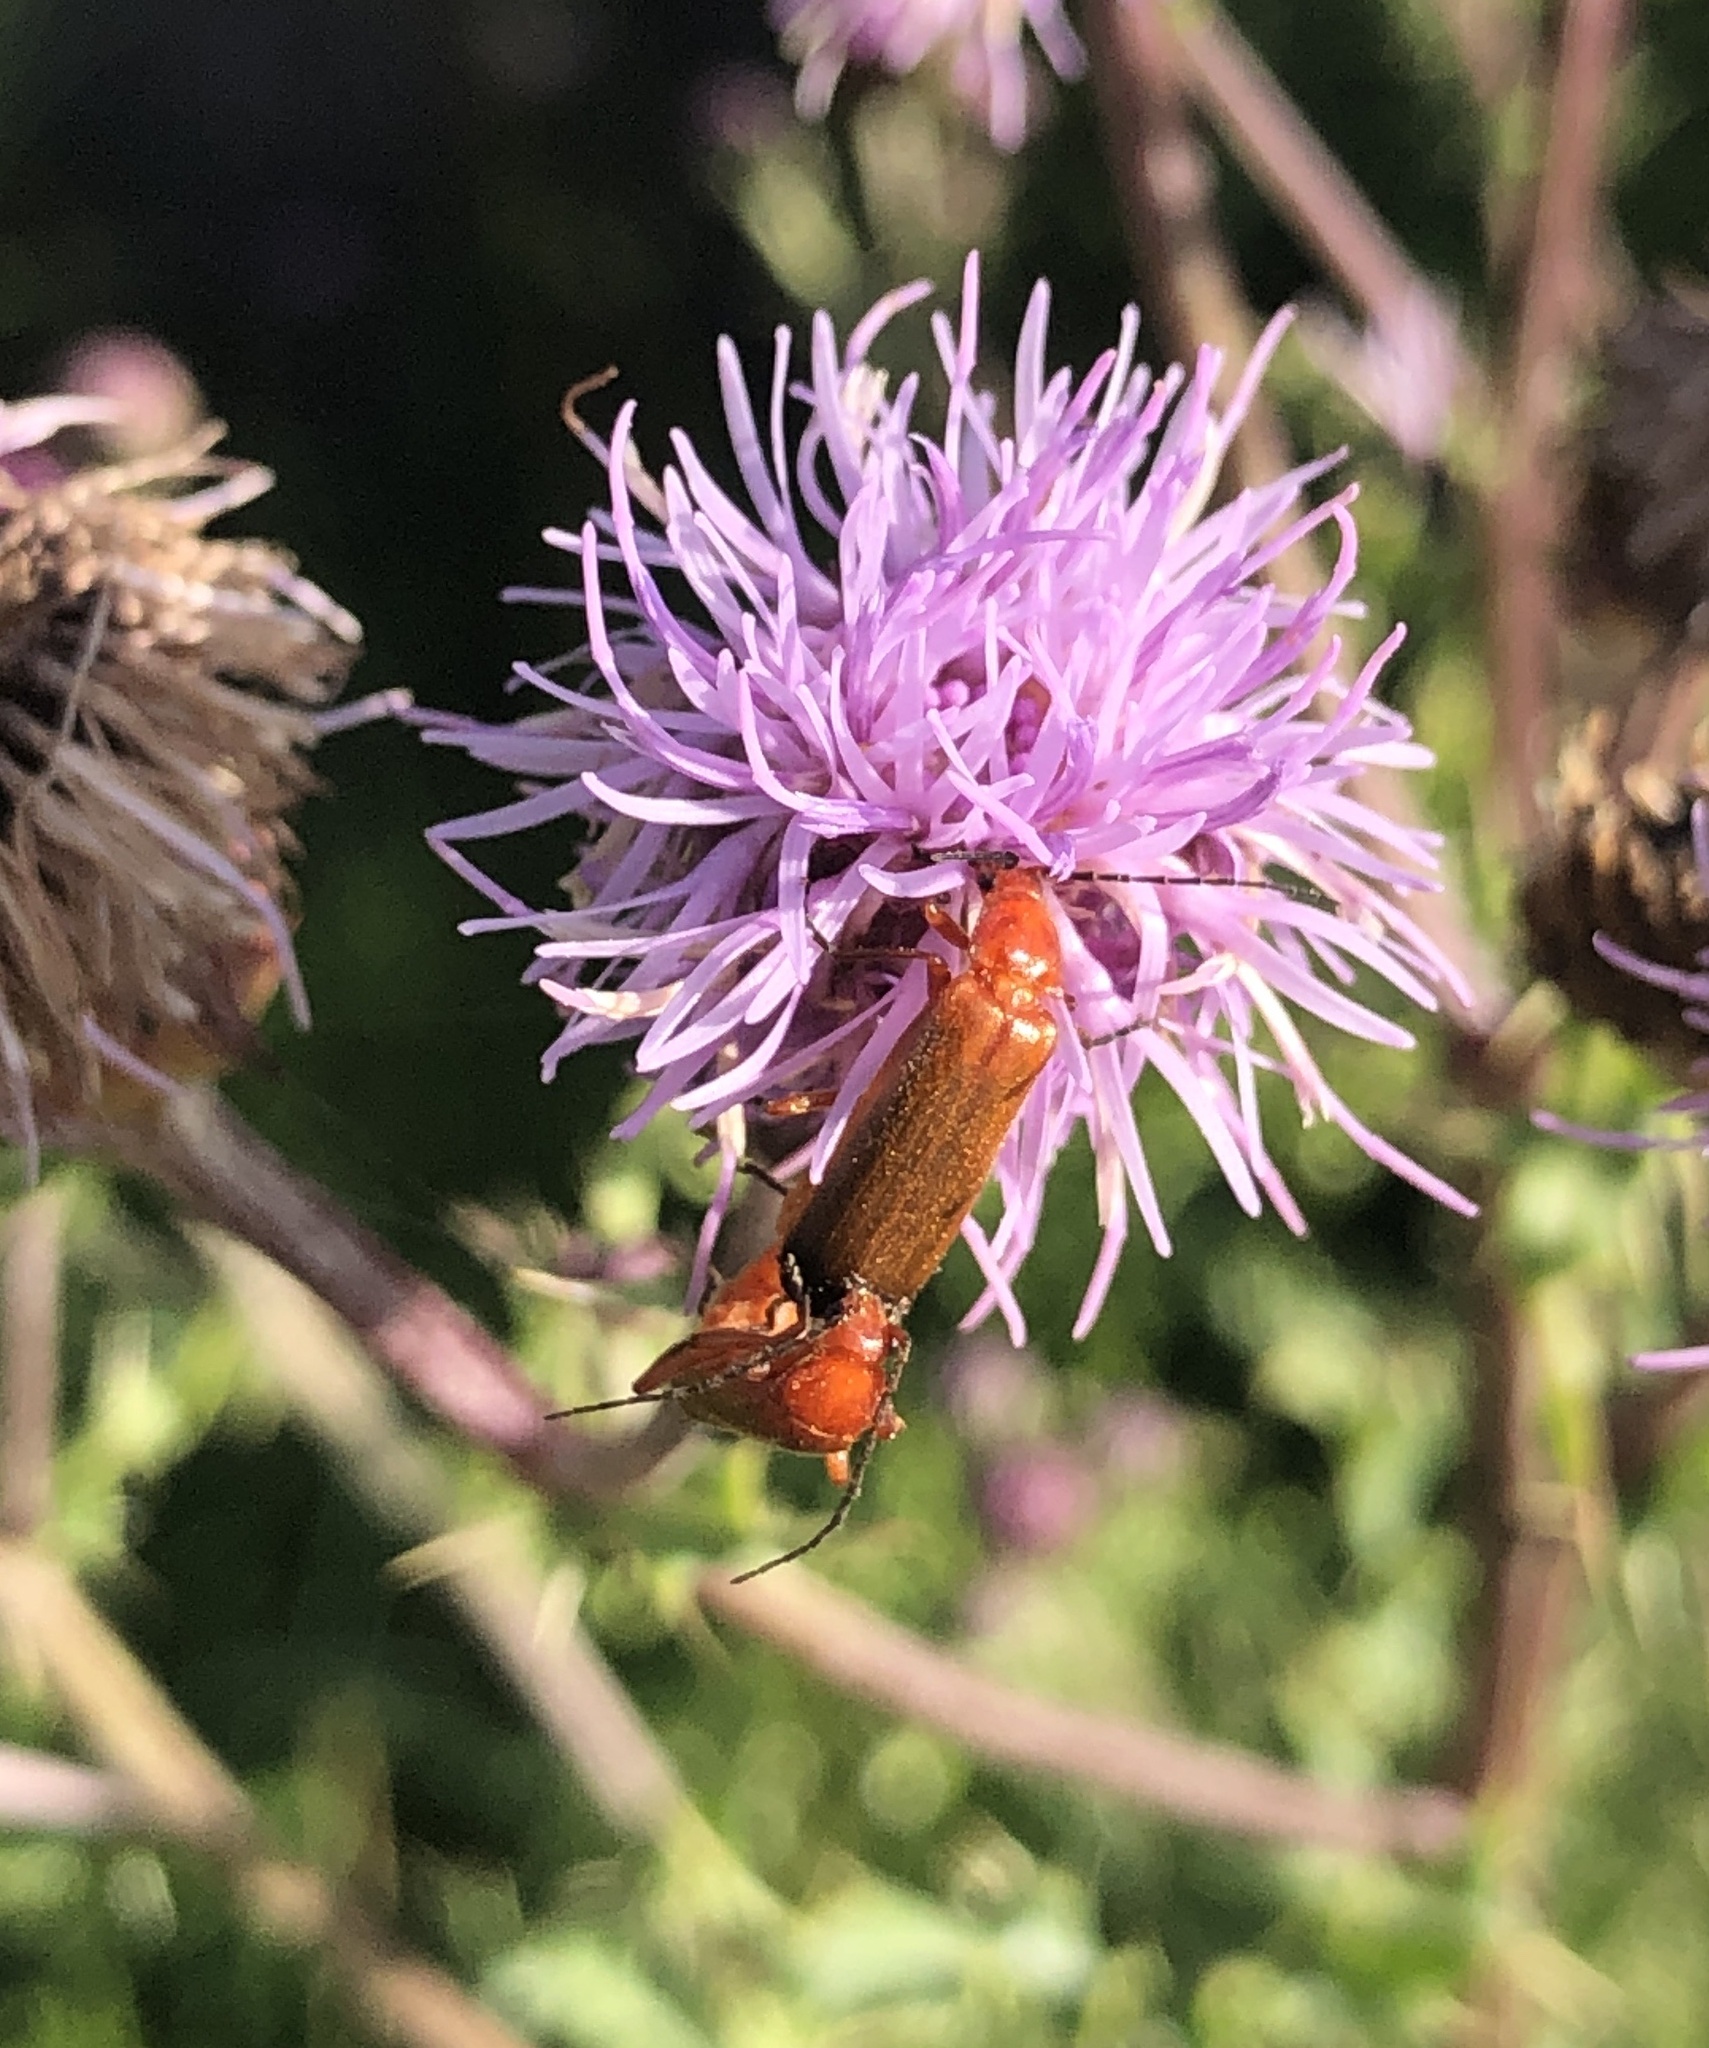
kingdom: Animalia
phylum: Arthropoda
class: Insecta
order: Coleoptera
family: Cantharidae
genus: Rhagonycha
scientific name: Rhagonycha fulva
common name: Common red soldier beetle
